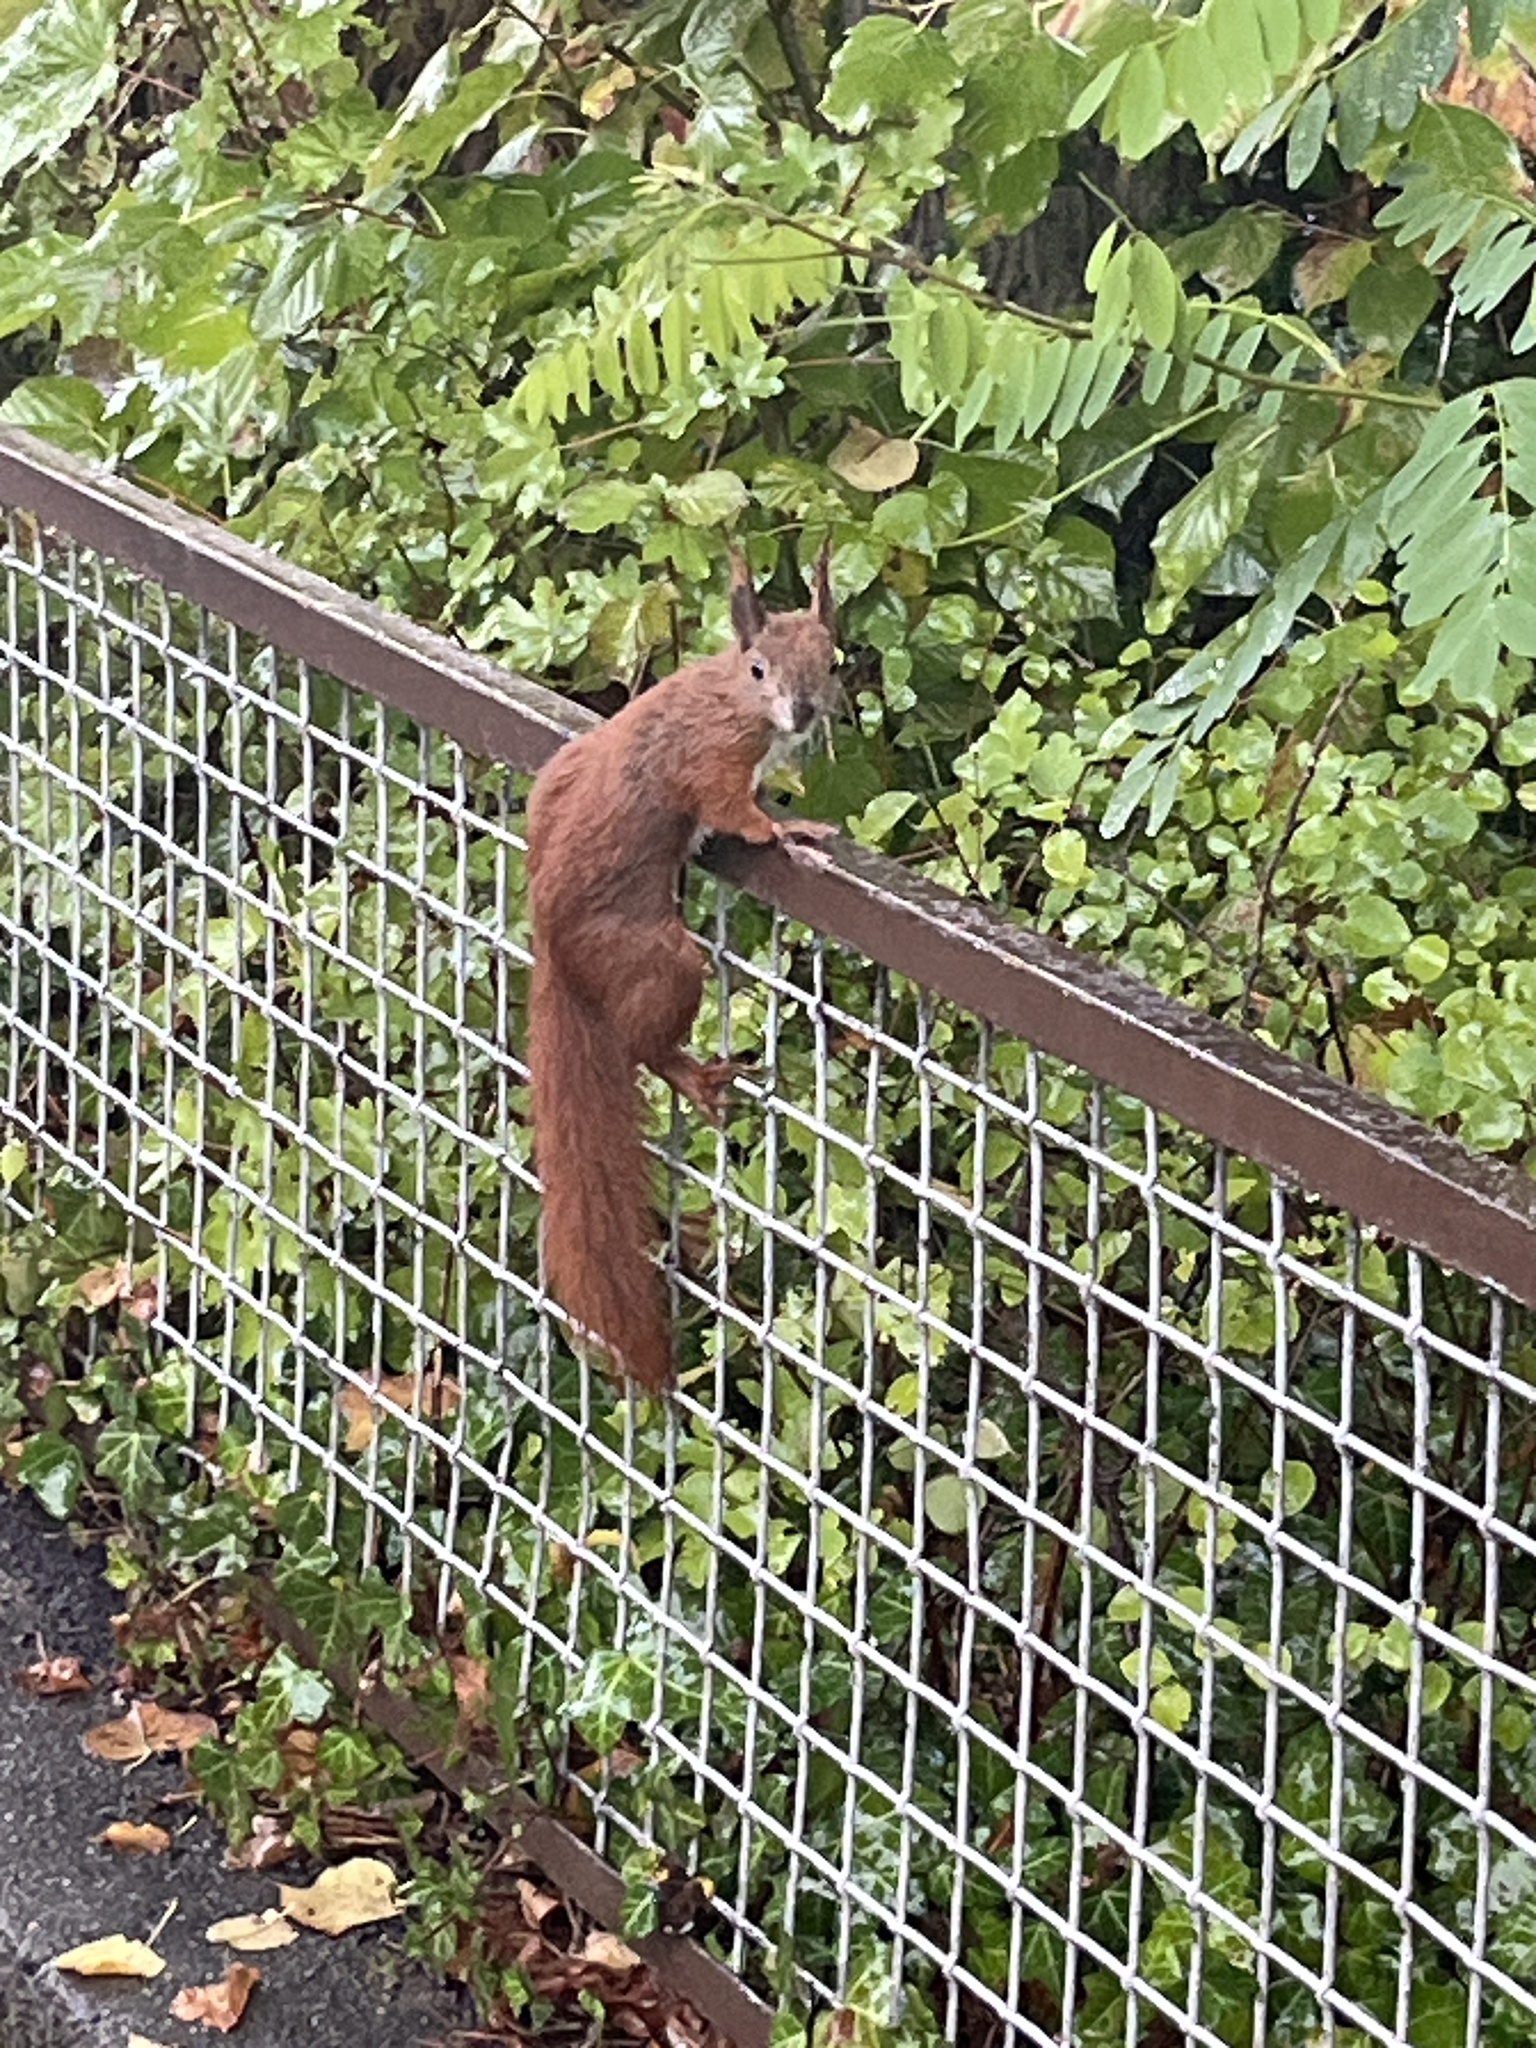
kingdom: Animalia
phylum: Chordata
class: Mammalia
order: Rodentia
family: Sciuridae
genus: Sciurus
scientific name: Sciurus vulgaris
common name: Eurasian red squirrel
